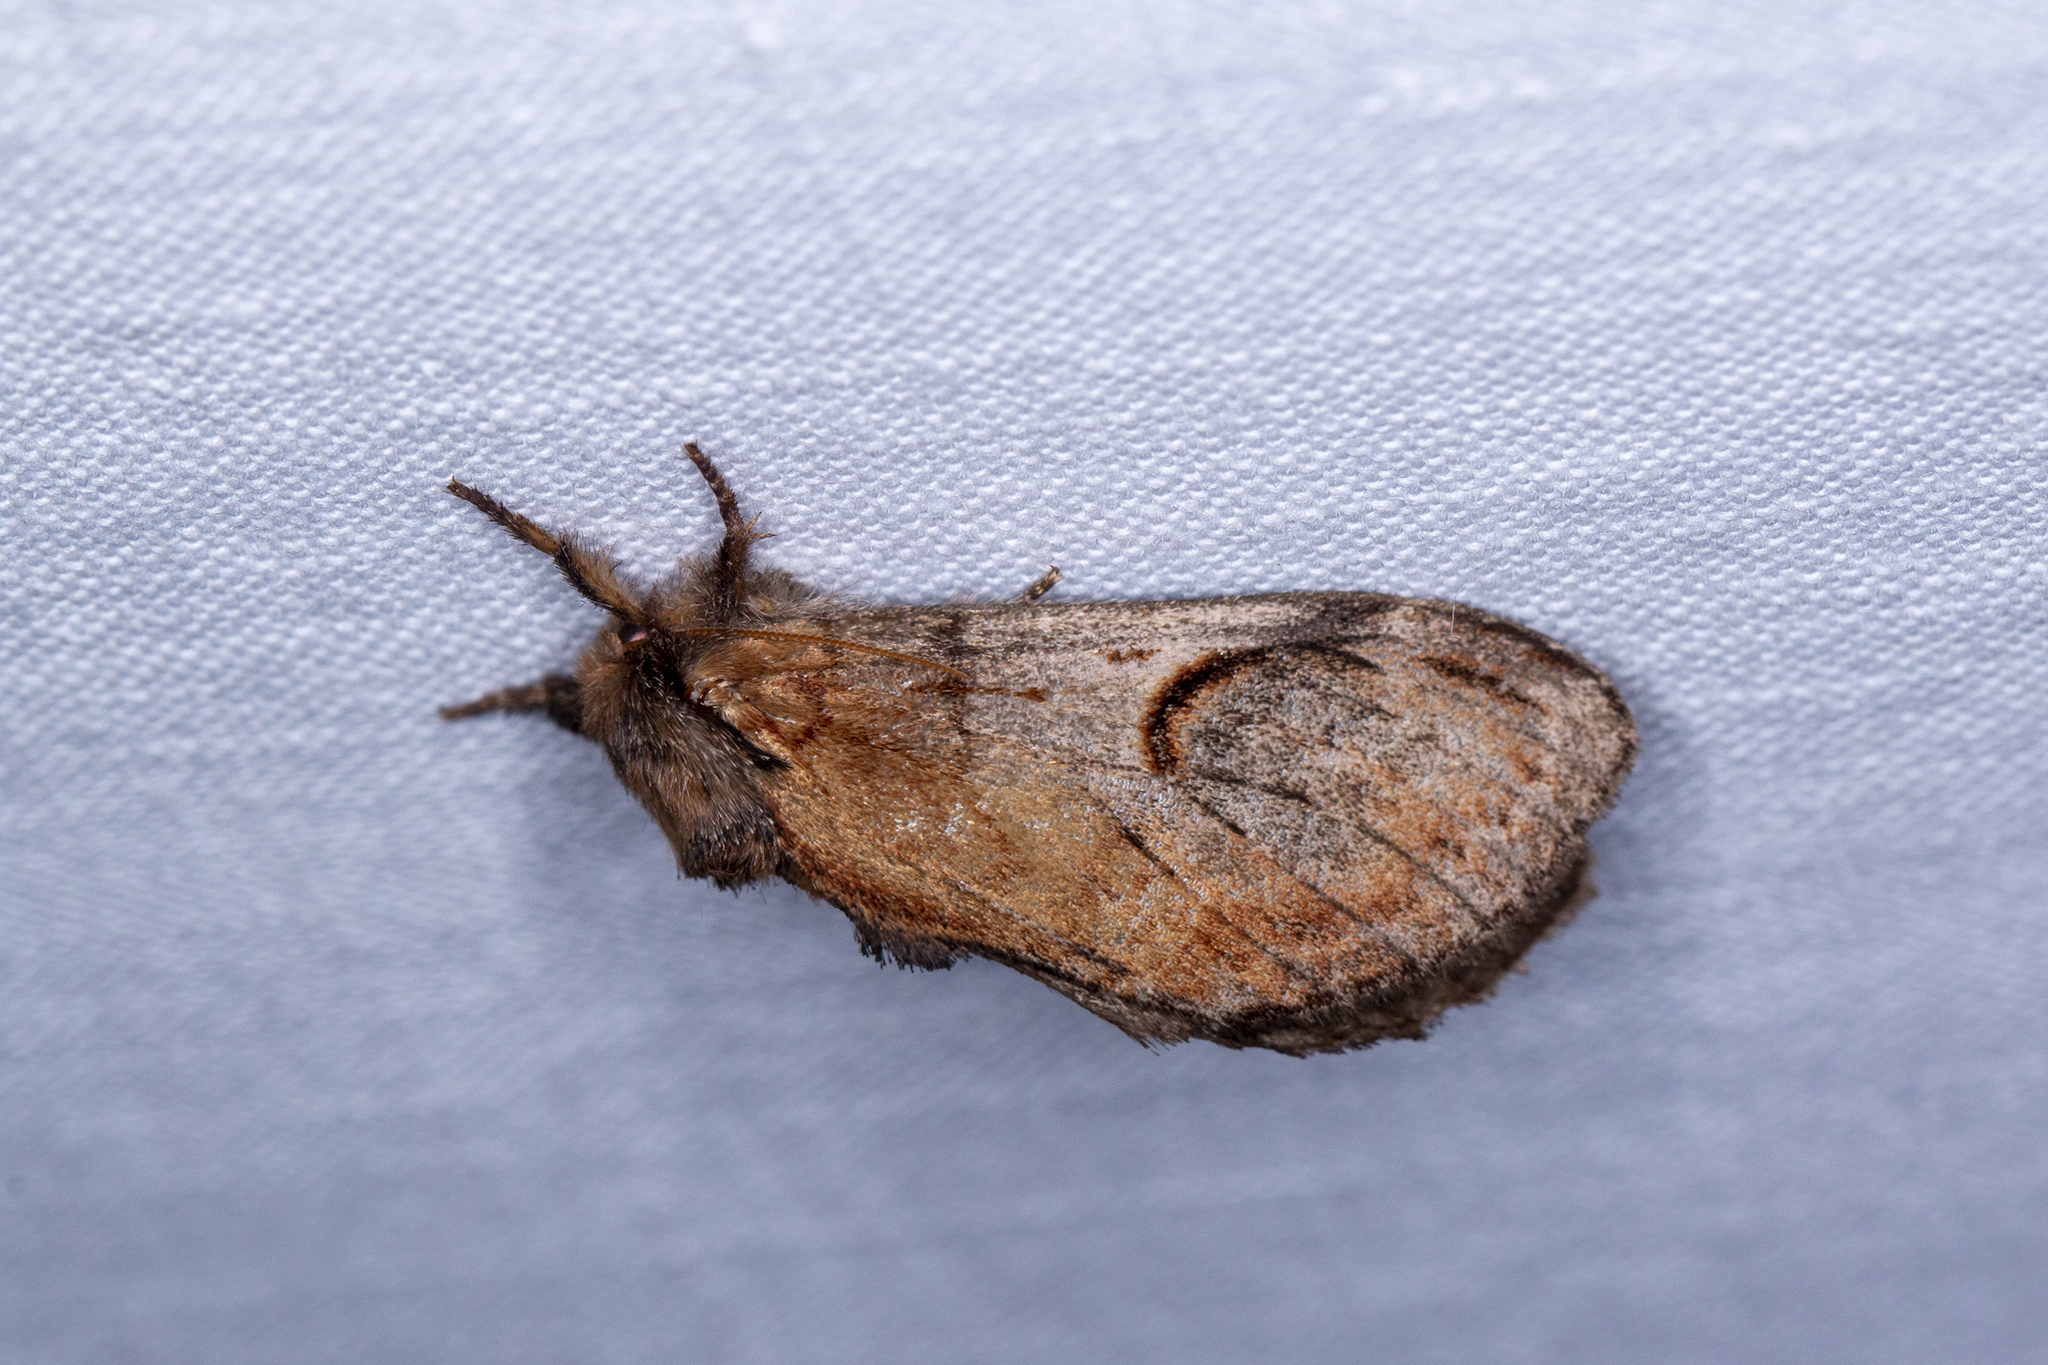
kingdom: Animalia
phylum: Arthropoda
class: Insecta
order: Lepidoptera
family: Notodontidae
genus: Notodonta
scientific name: Notodonta ziczac
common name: Pebble prominent
